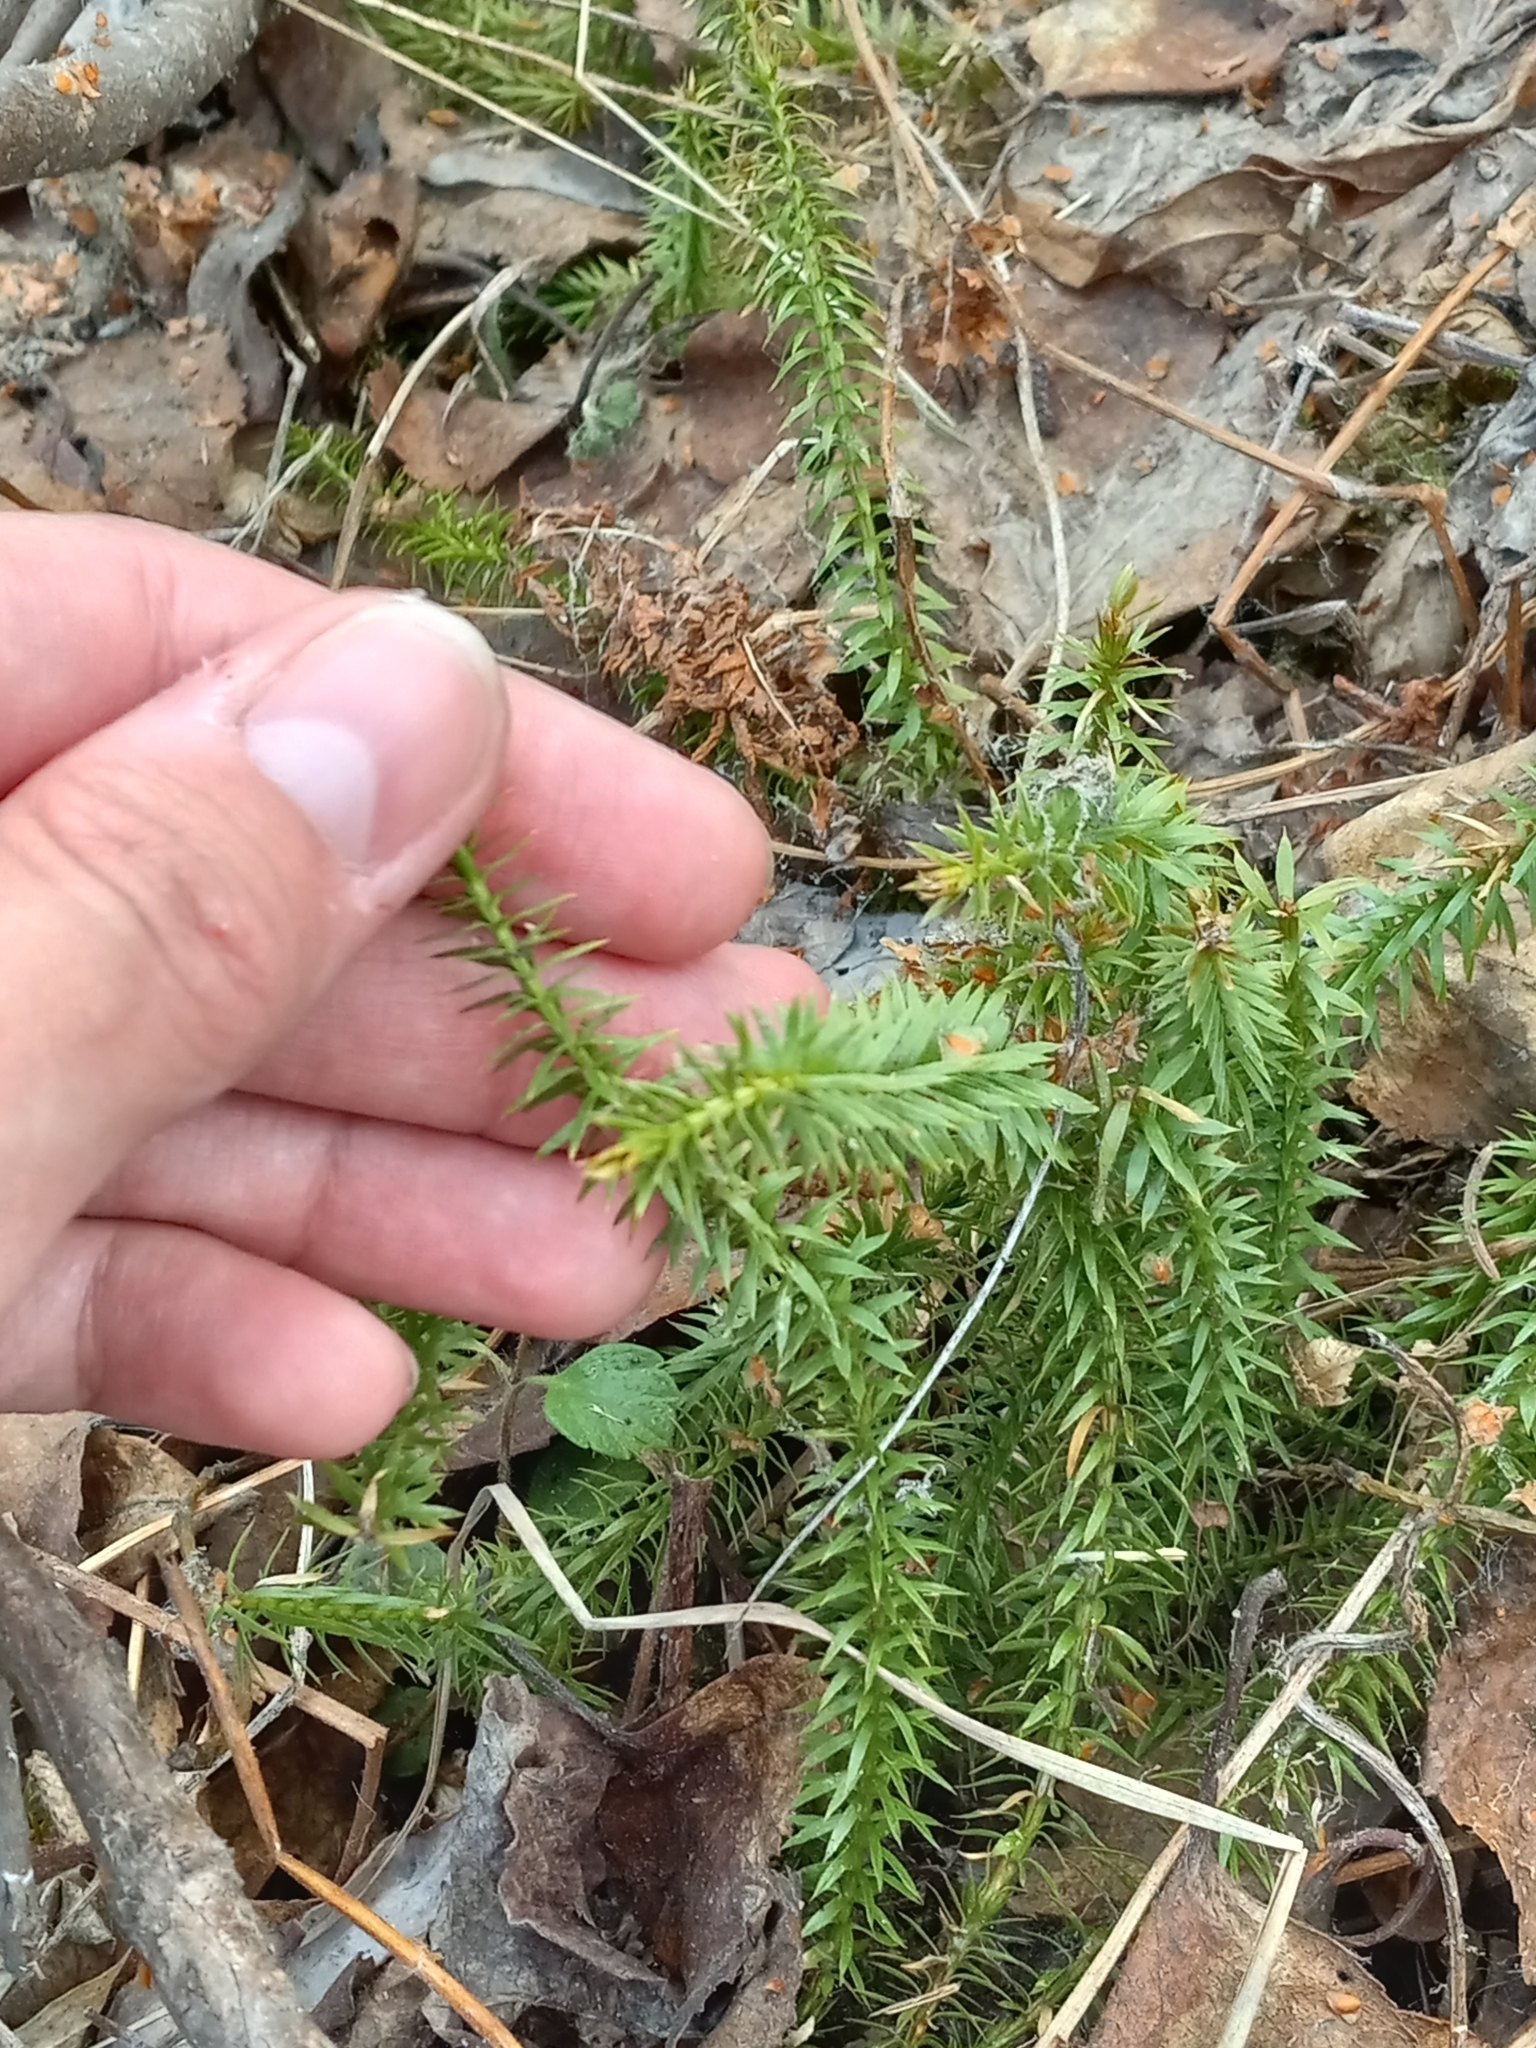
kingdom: Plantae
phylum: Tracheophyta
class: Lycopodiopsida
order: Lycopodiales
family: Lycopodiaceae
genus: Spinulum
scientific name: Spinulum annotinum
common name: Interrupted club-moss
